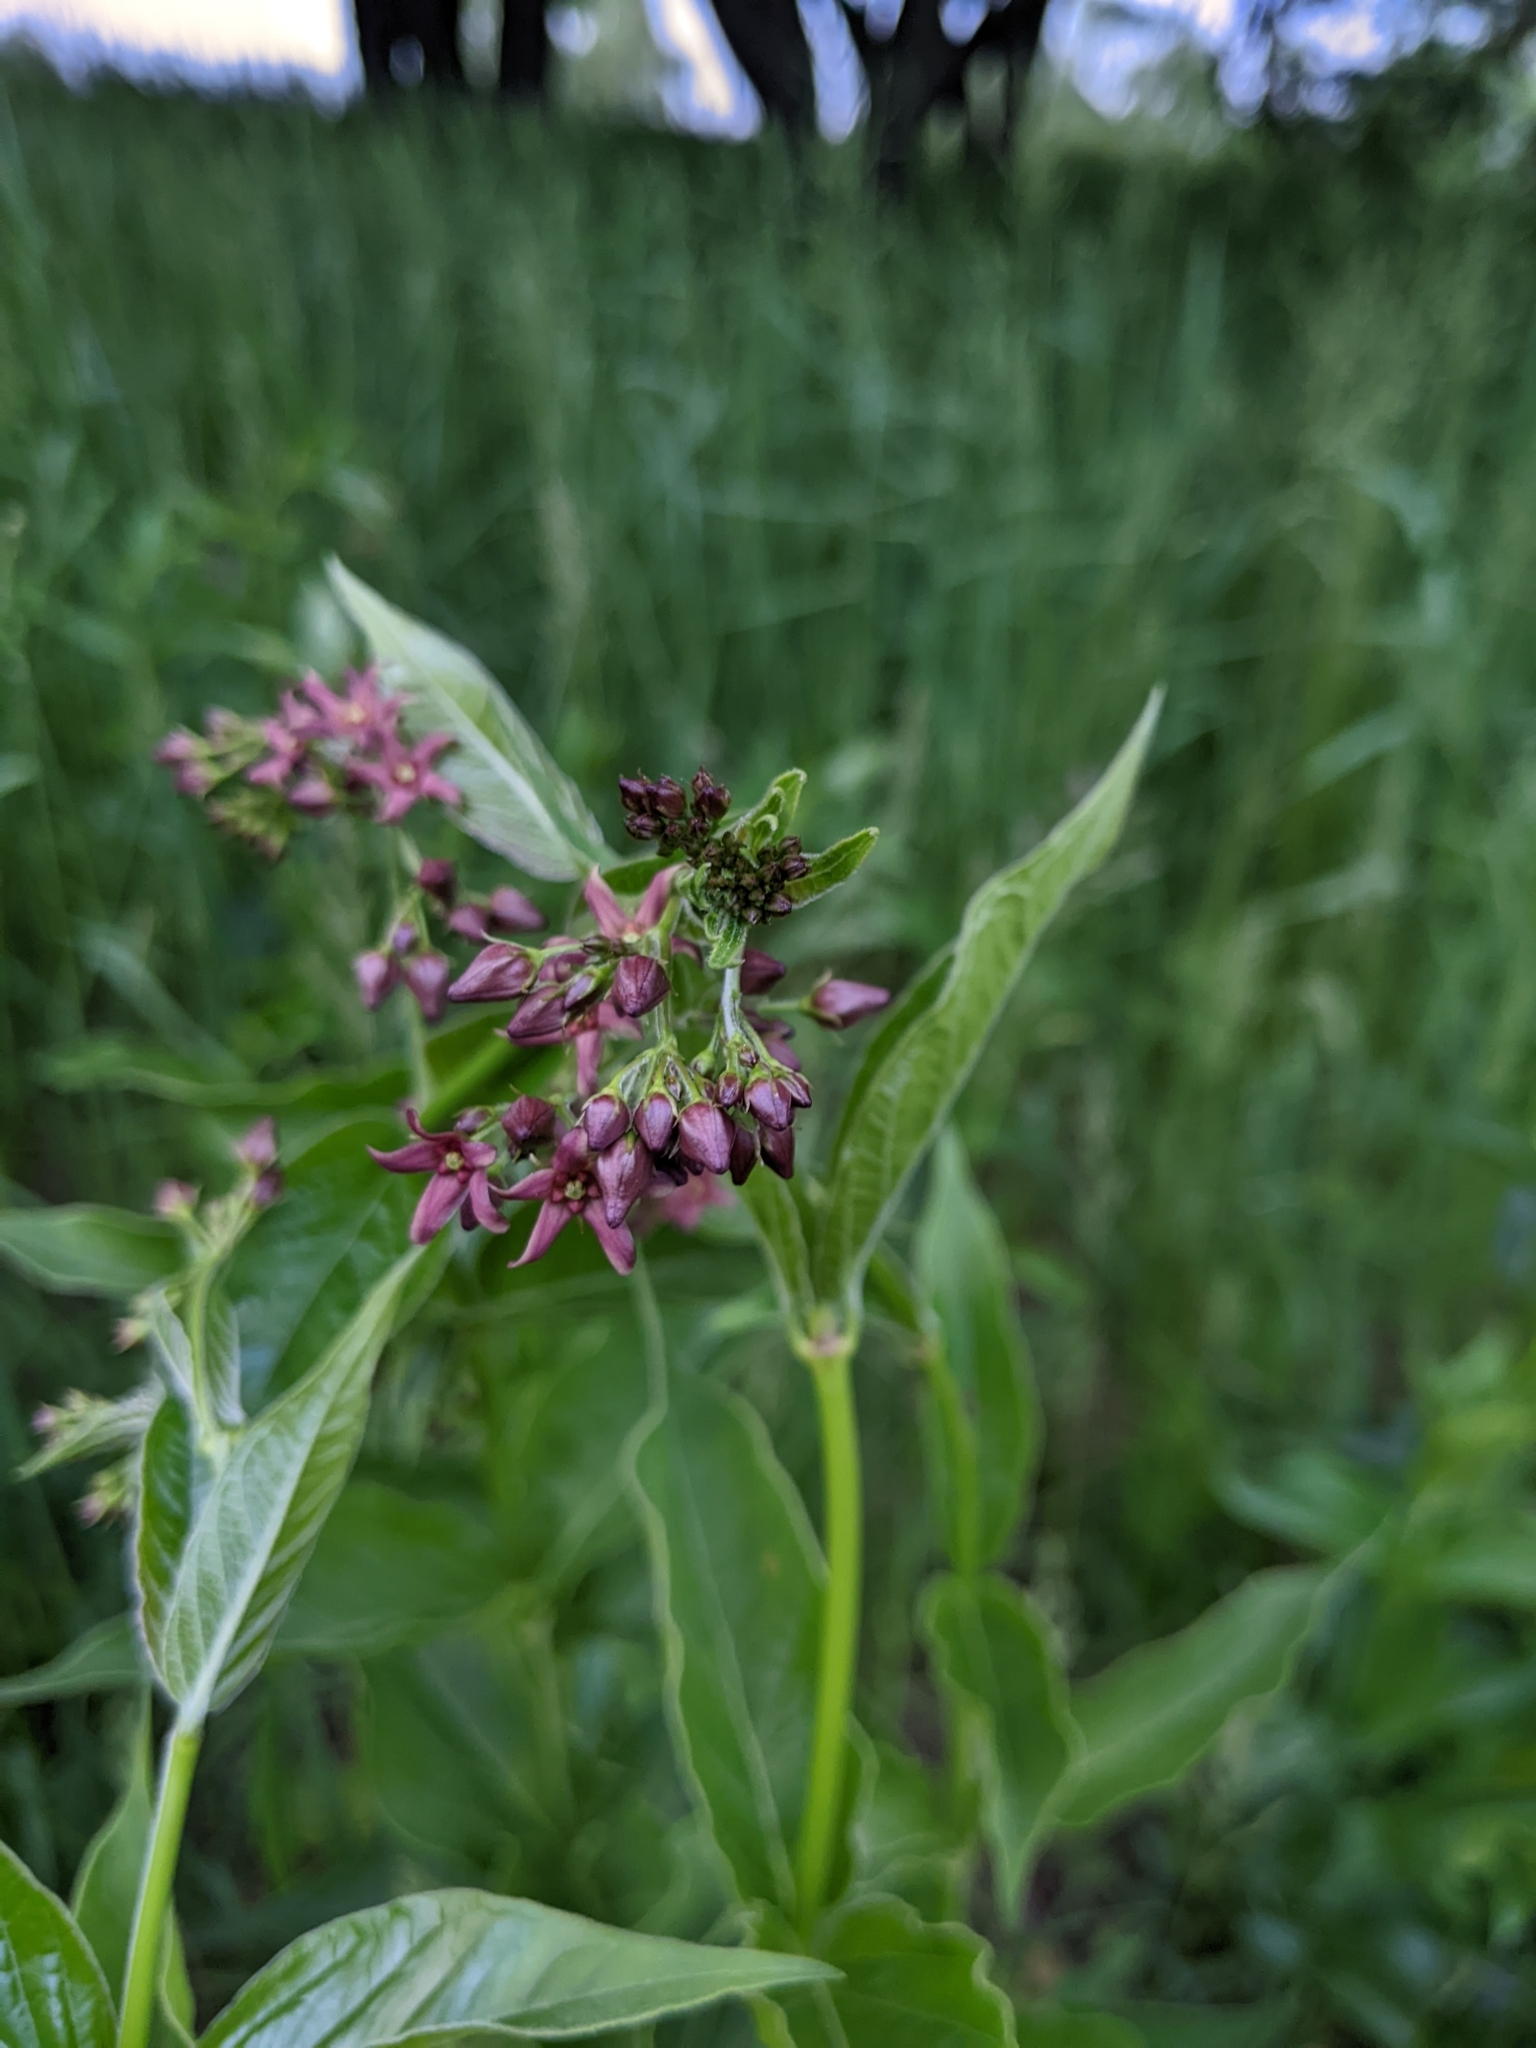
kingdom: Plantae
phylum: Tracheophyta
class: Magnoliopsida
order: Gentianales
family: Apocynaceae
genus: Vincetoxicum
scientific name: Vincetoxicum rossicum
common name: Dog-strangling vine
